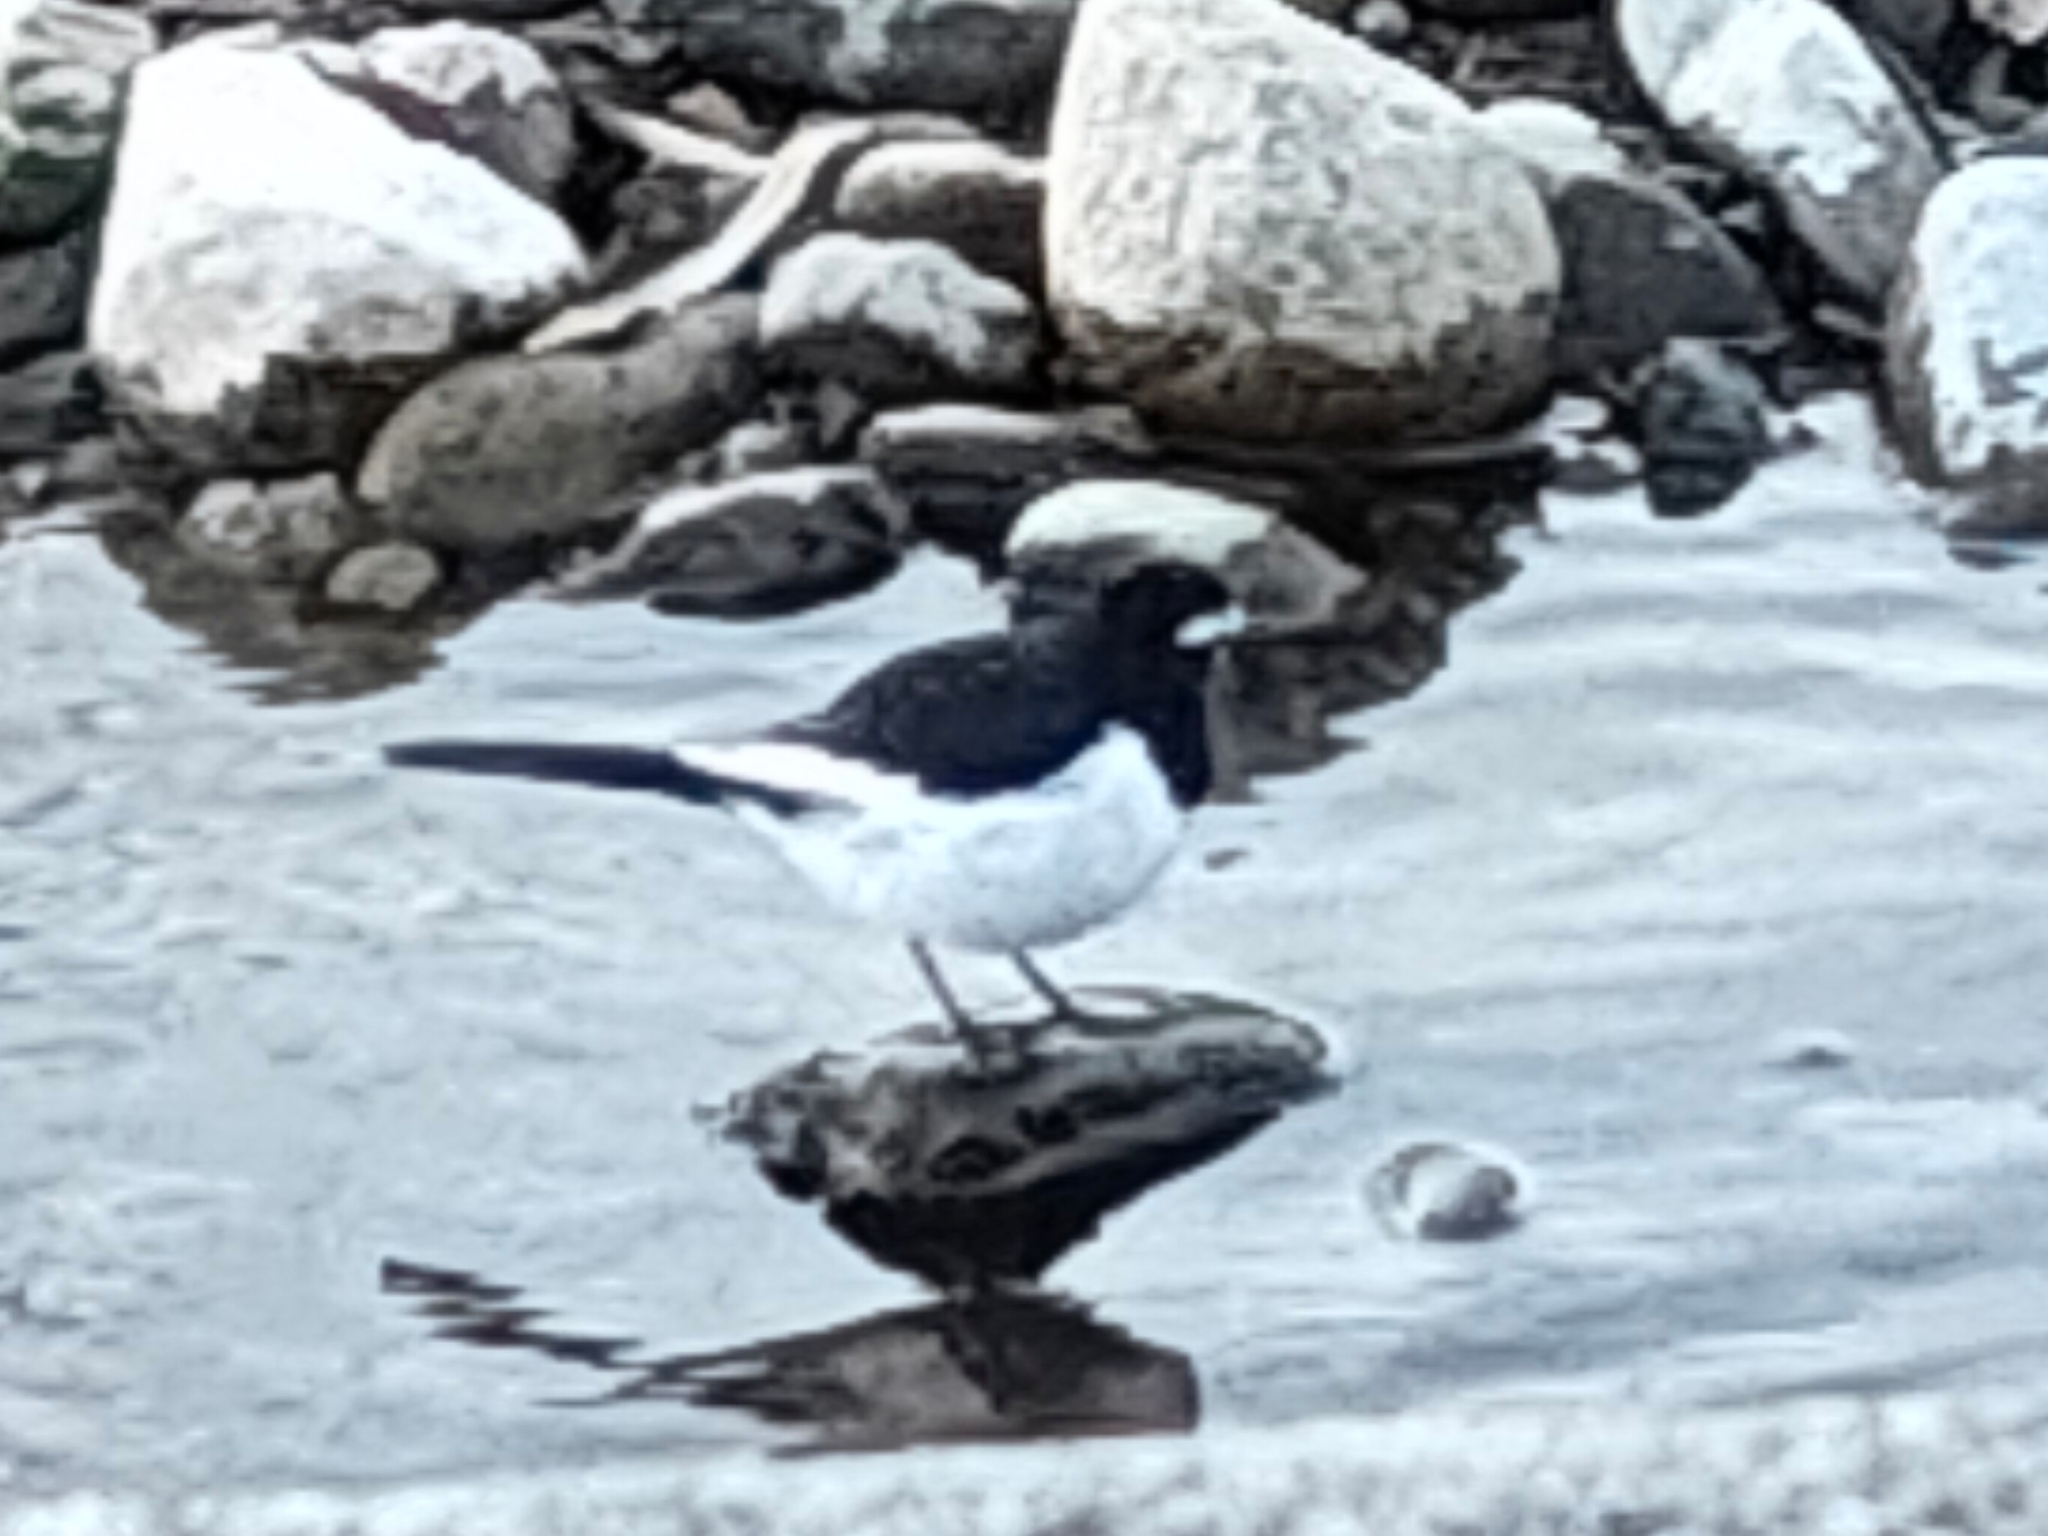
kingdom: Animalia
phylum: Chordata
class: Aves
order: Passeriformes
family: Motacillidae
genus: Motacilla
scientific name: Motacilla grandis
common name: Japanese wagtail
